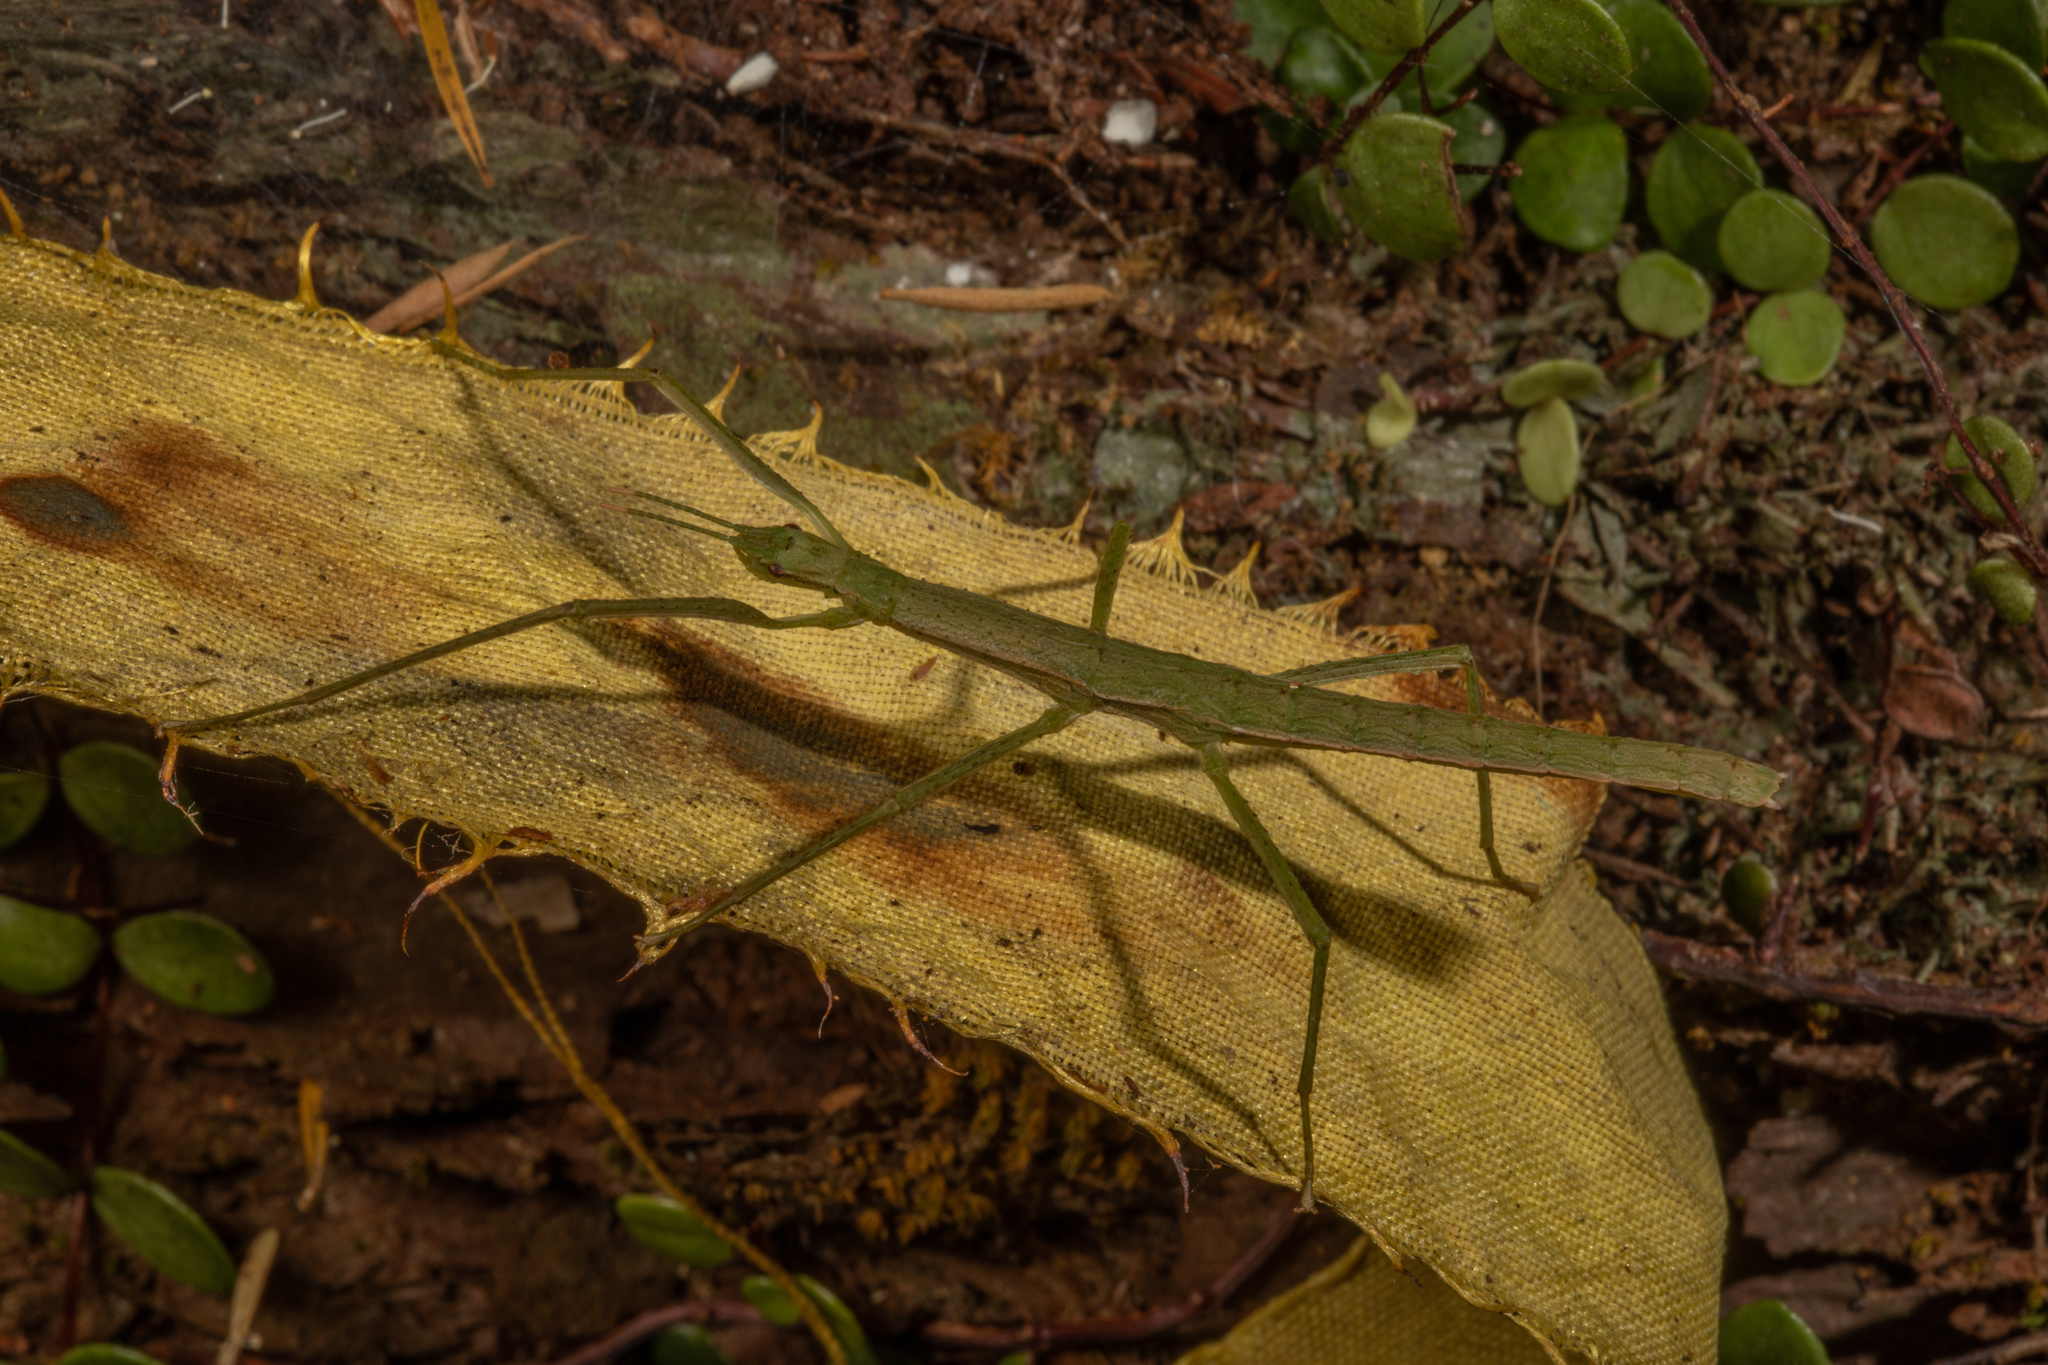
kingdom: Animalia
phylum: Arthropoda
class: Insecta
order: Phasmida
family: Phasmatidae
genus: Spinotectarchus
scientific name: Spinotectarchus acornutus
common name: The spiny ridge-backed stick insect
